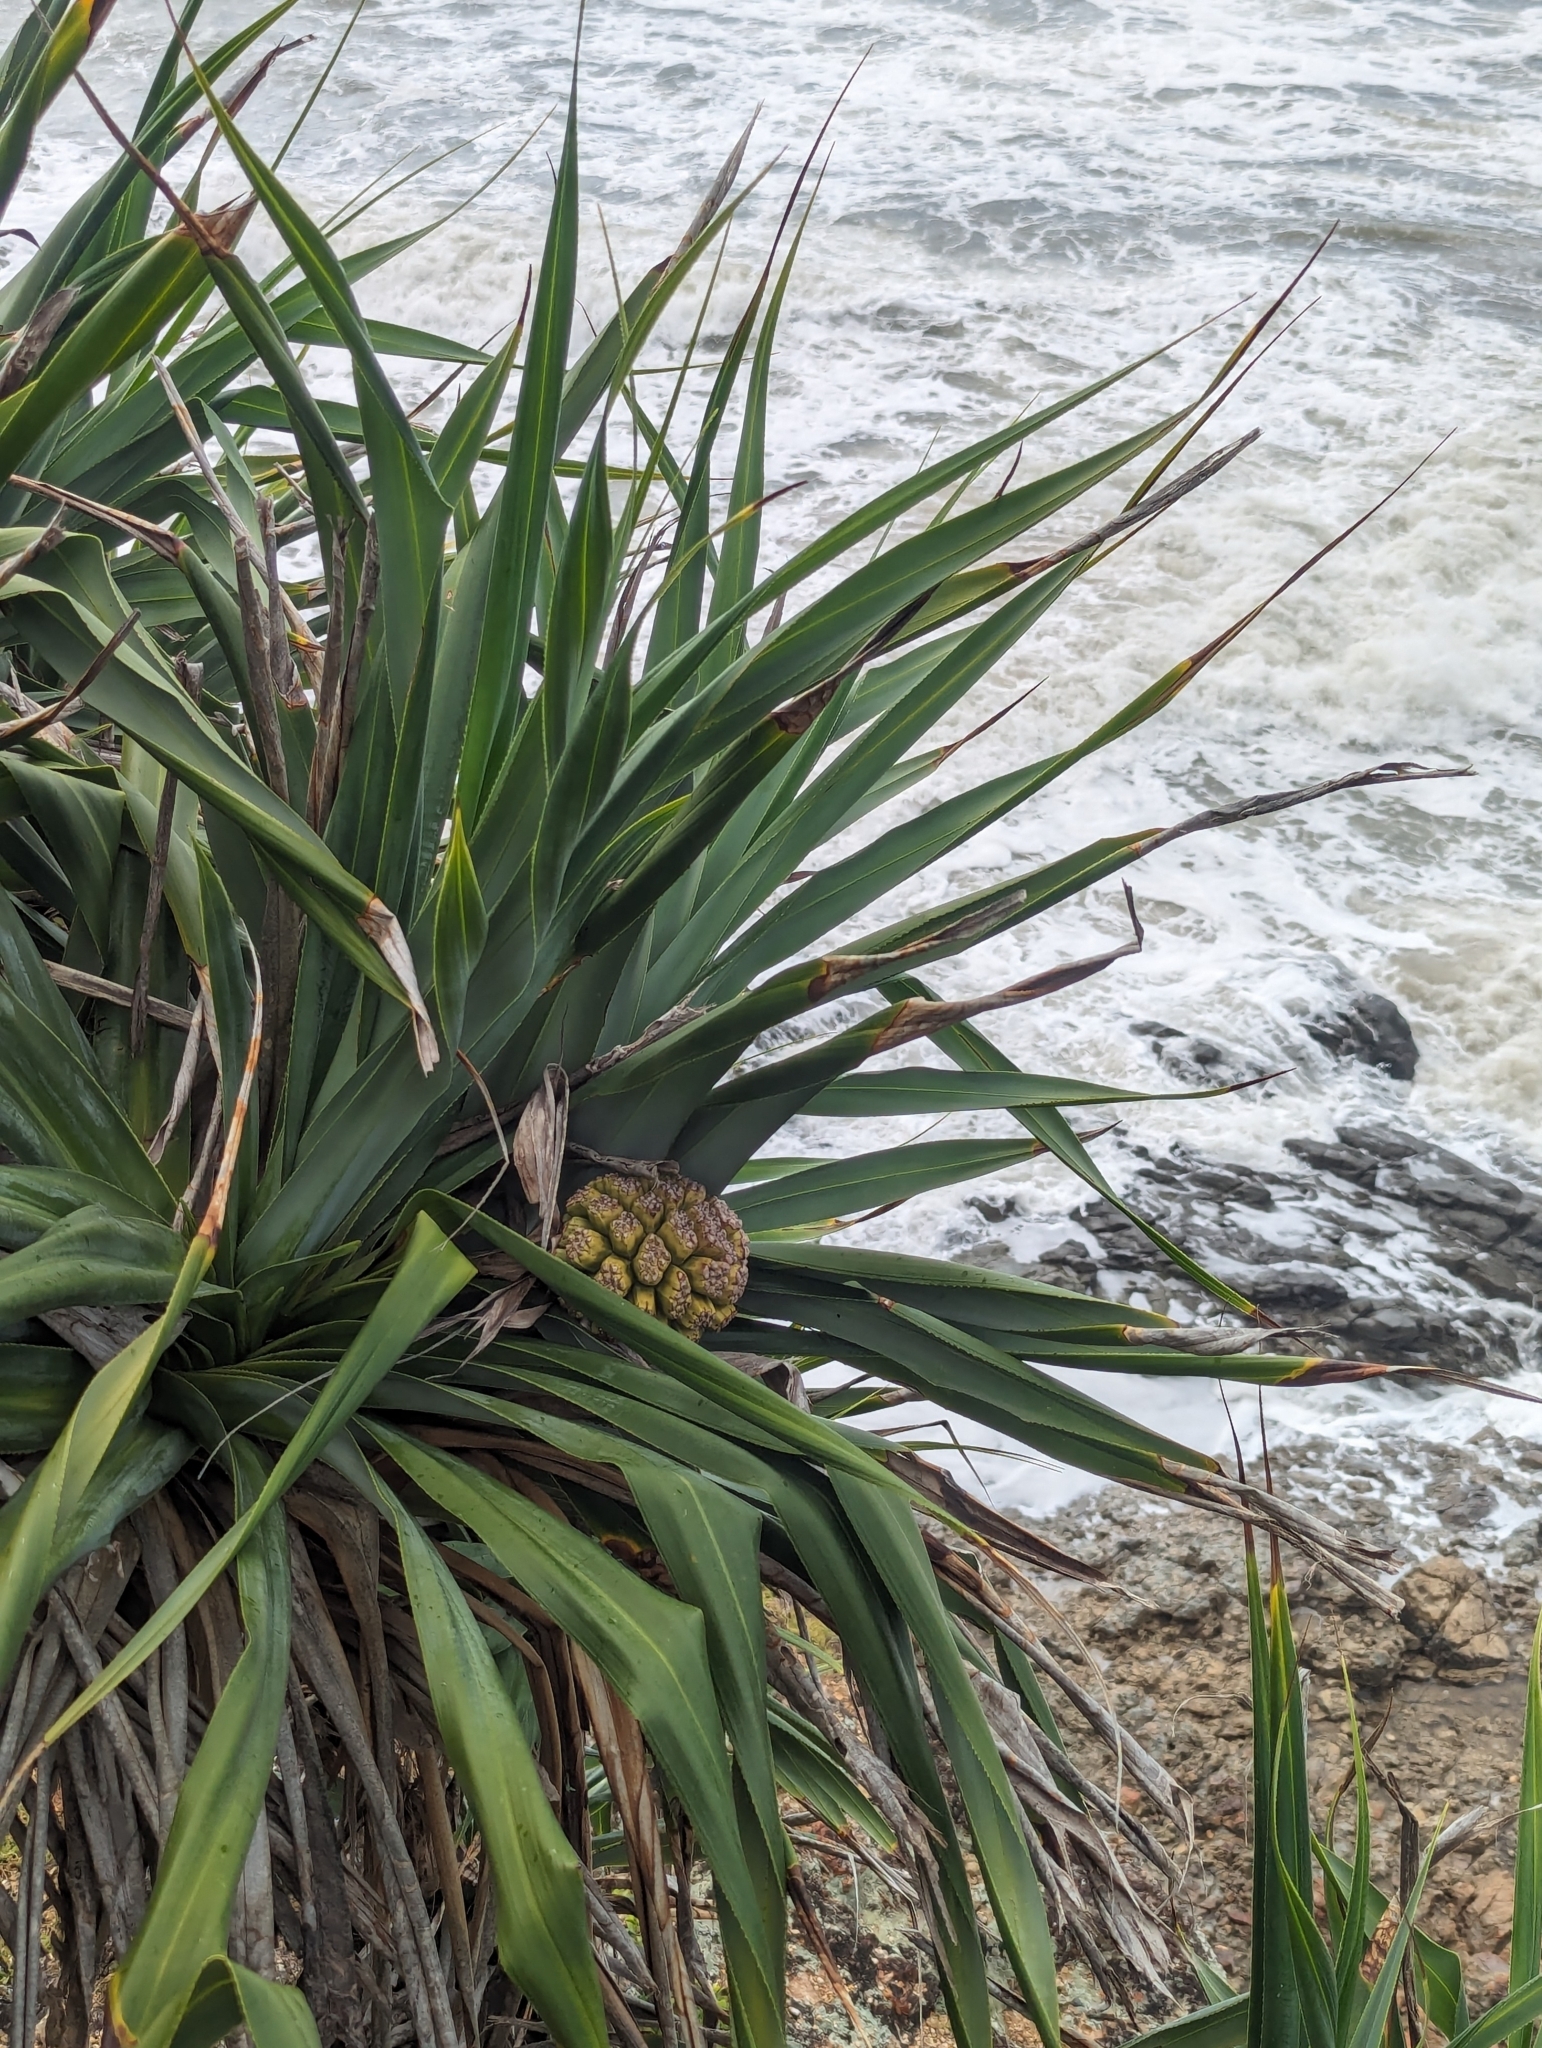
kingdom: Plantae
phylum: Tracheophyta
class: Liliopsida
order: Pandanales
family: Pandanaceae
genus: Pandanus
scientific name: Pandanus tectorius
